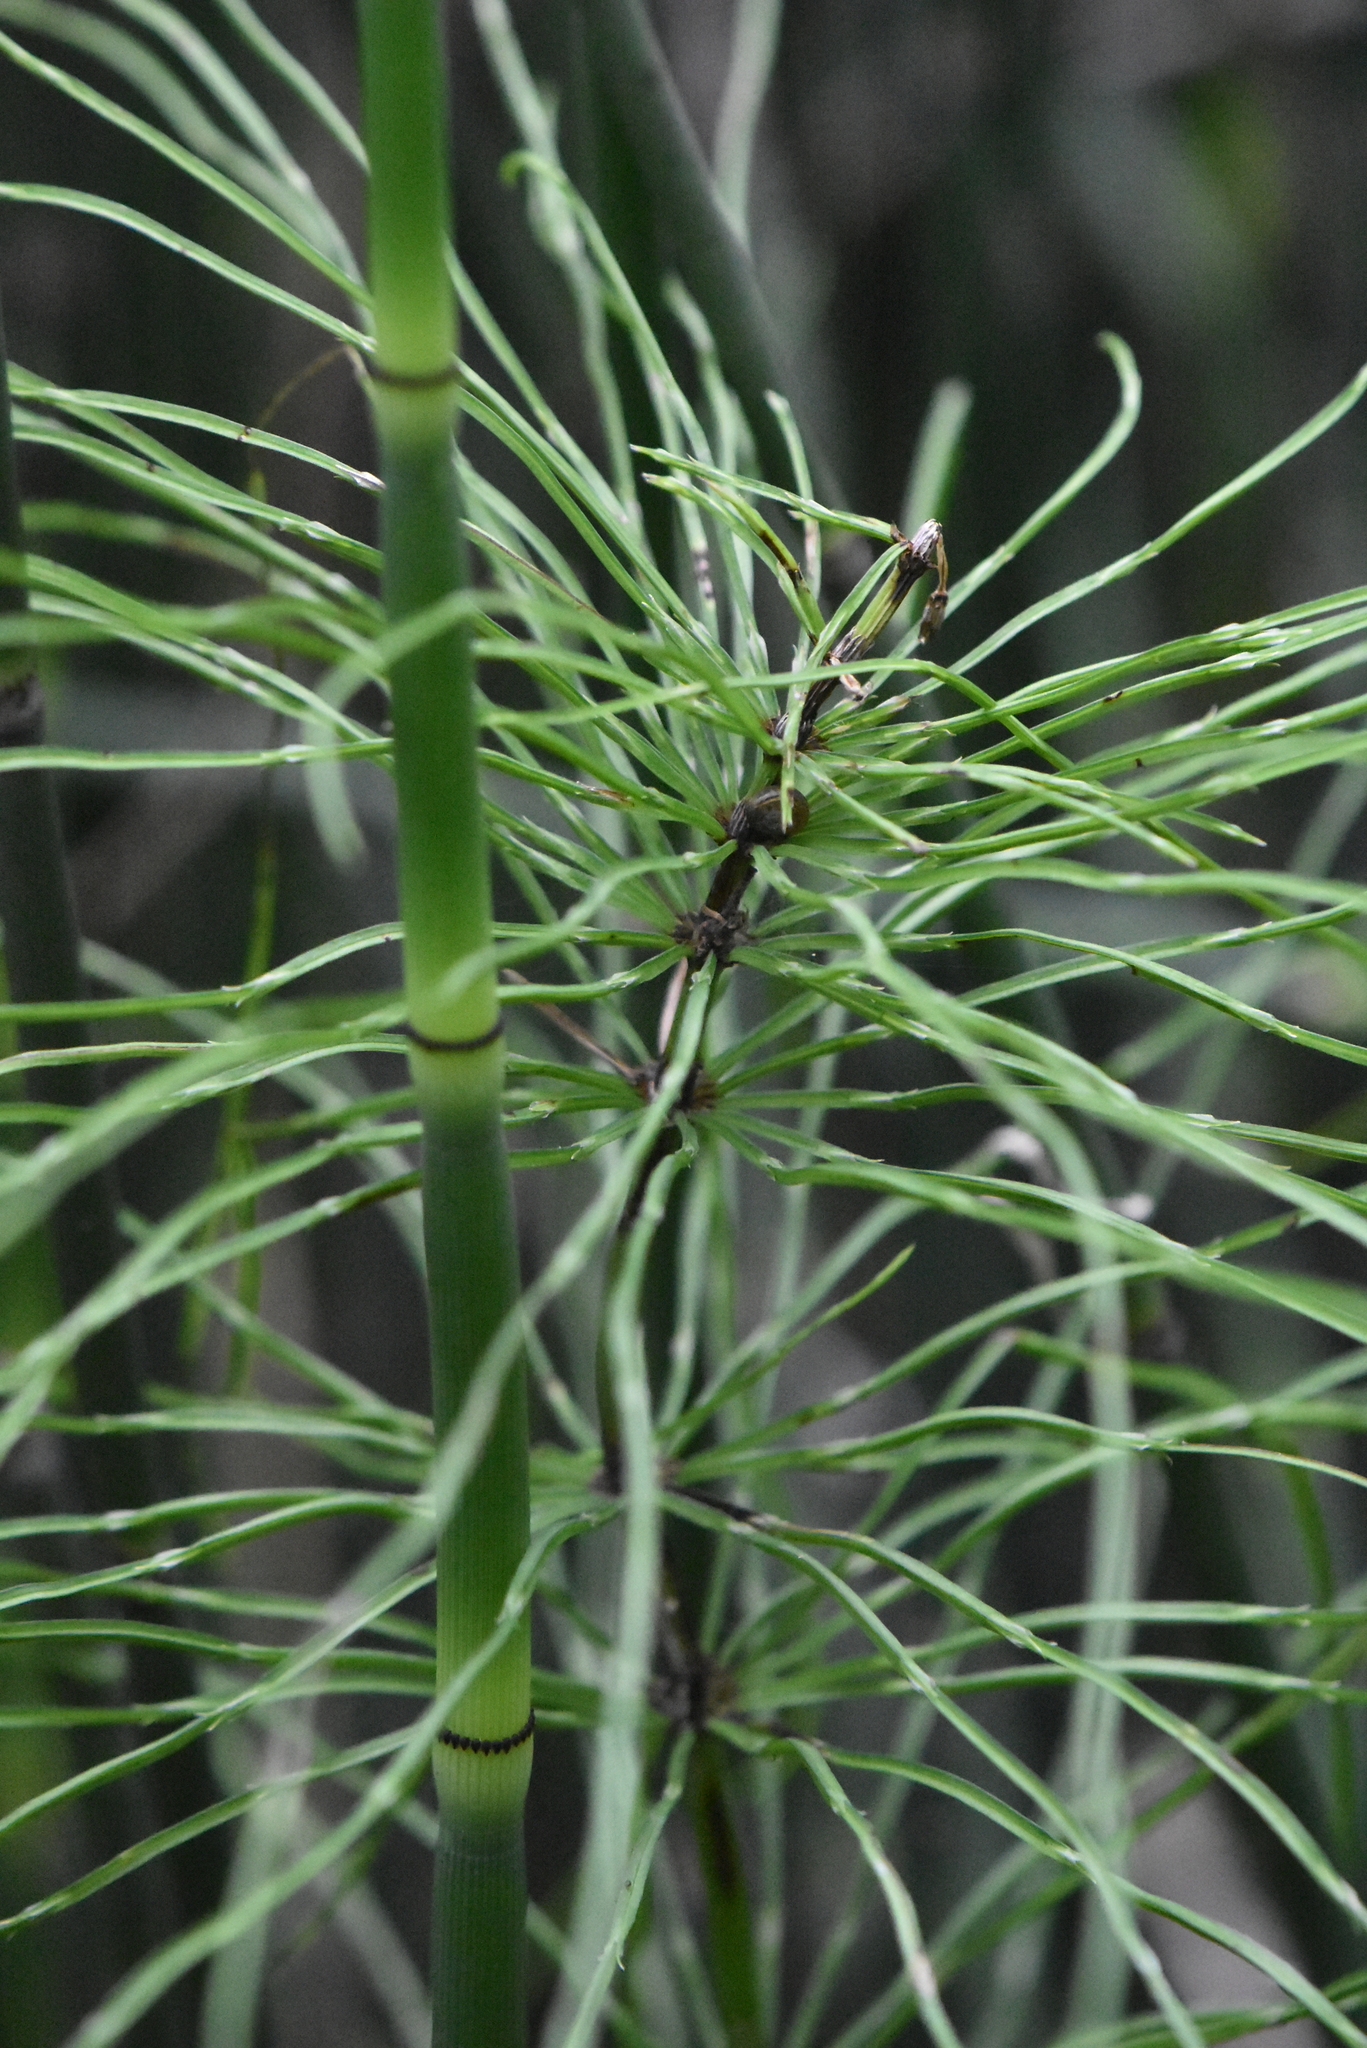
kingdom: Plantae
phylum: Tracheophyta
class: Polypodiopsida
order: Equisetales
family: Equisetaceae
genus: Equisetum
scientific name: Equisetum arvense
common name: Field horsetail
